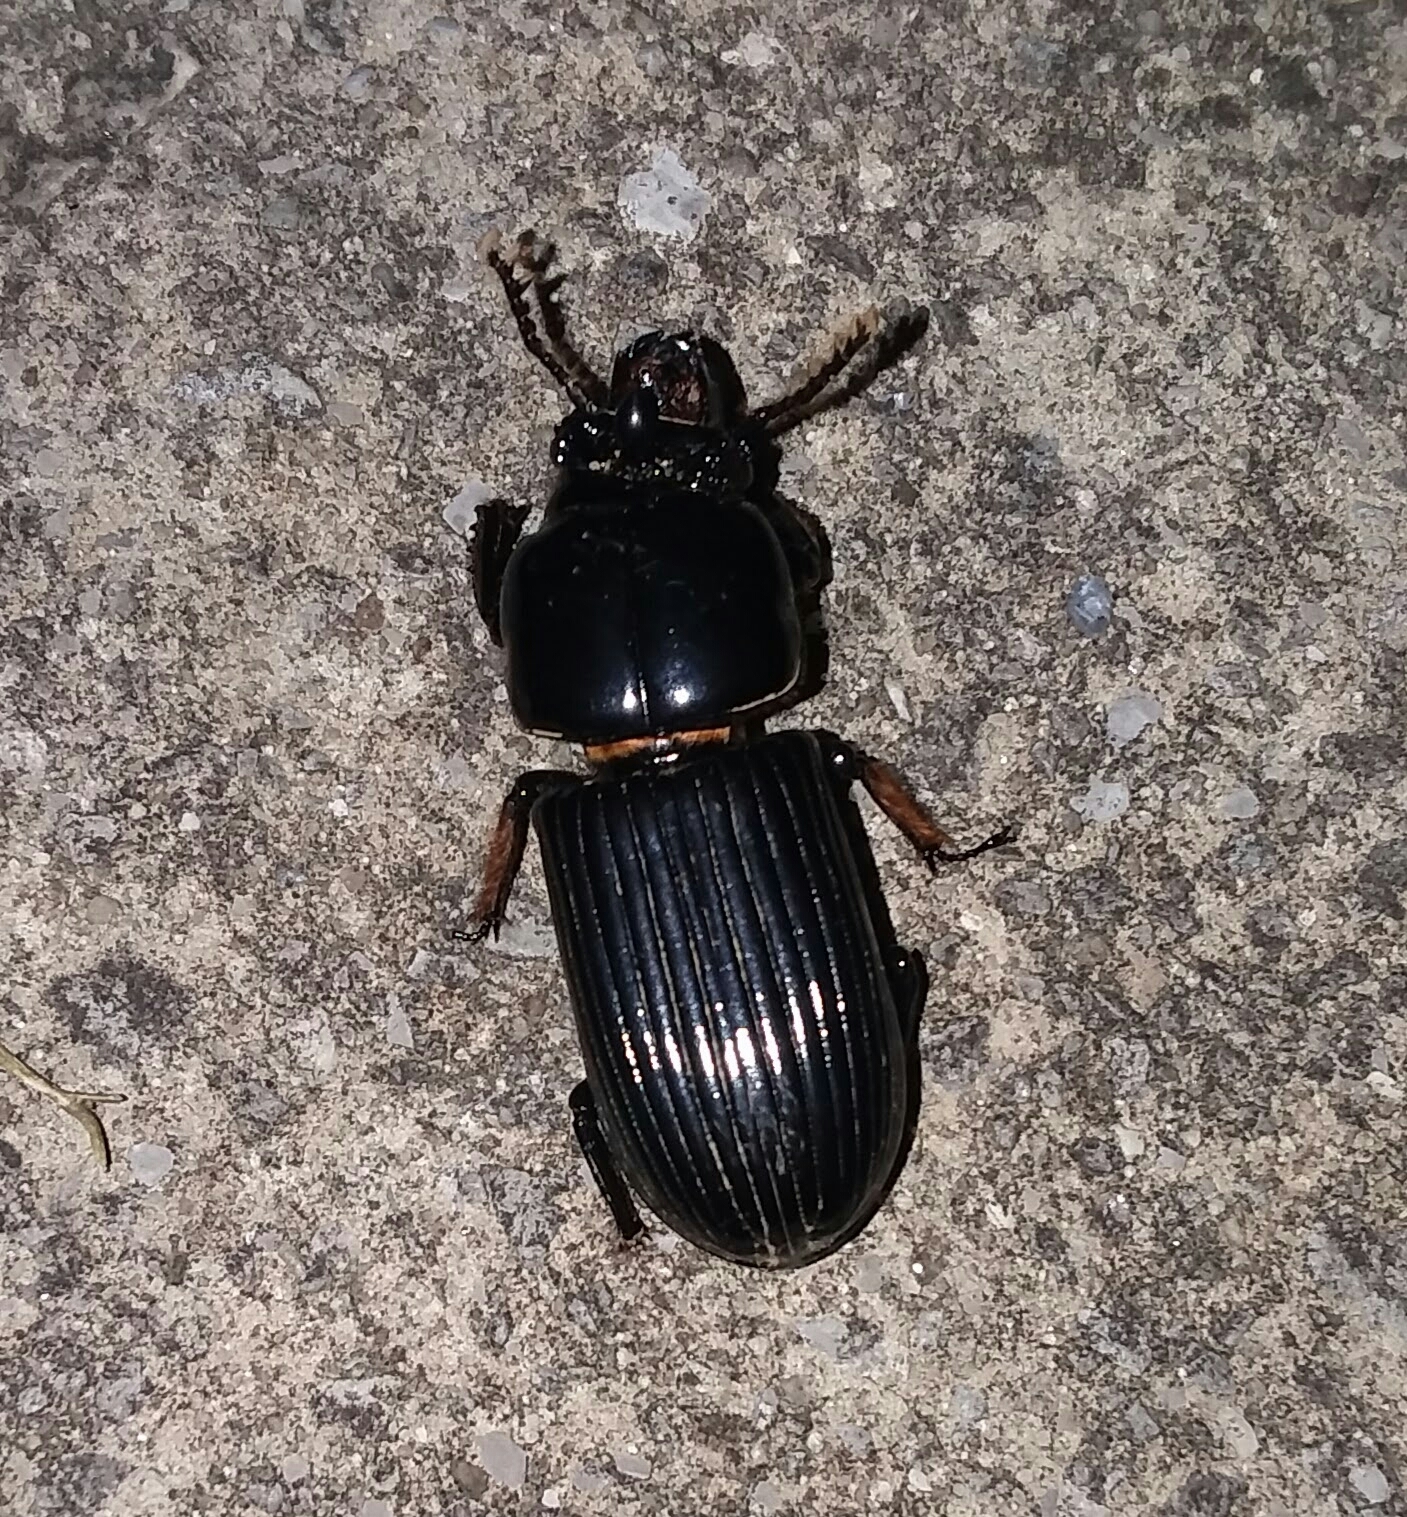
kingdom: Animalia
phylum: Arthropoda
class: Insecta
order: Coleoptera
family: Passalidae
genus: Odontotaenius
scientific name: Odontotaenius disjunctus
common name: Patent leather beetle
